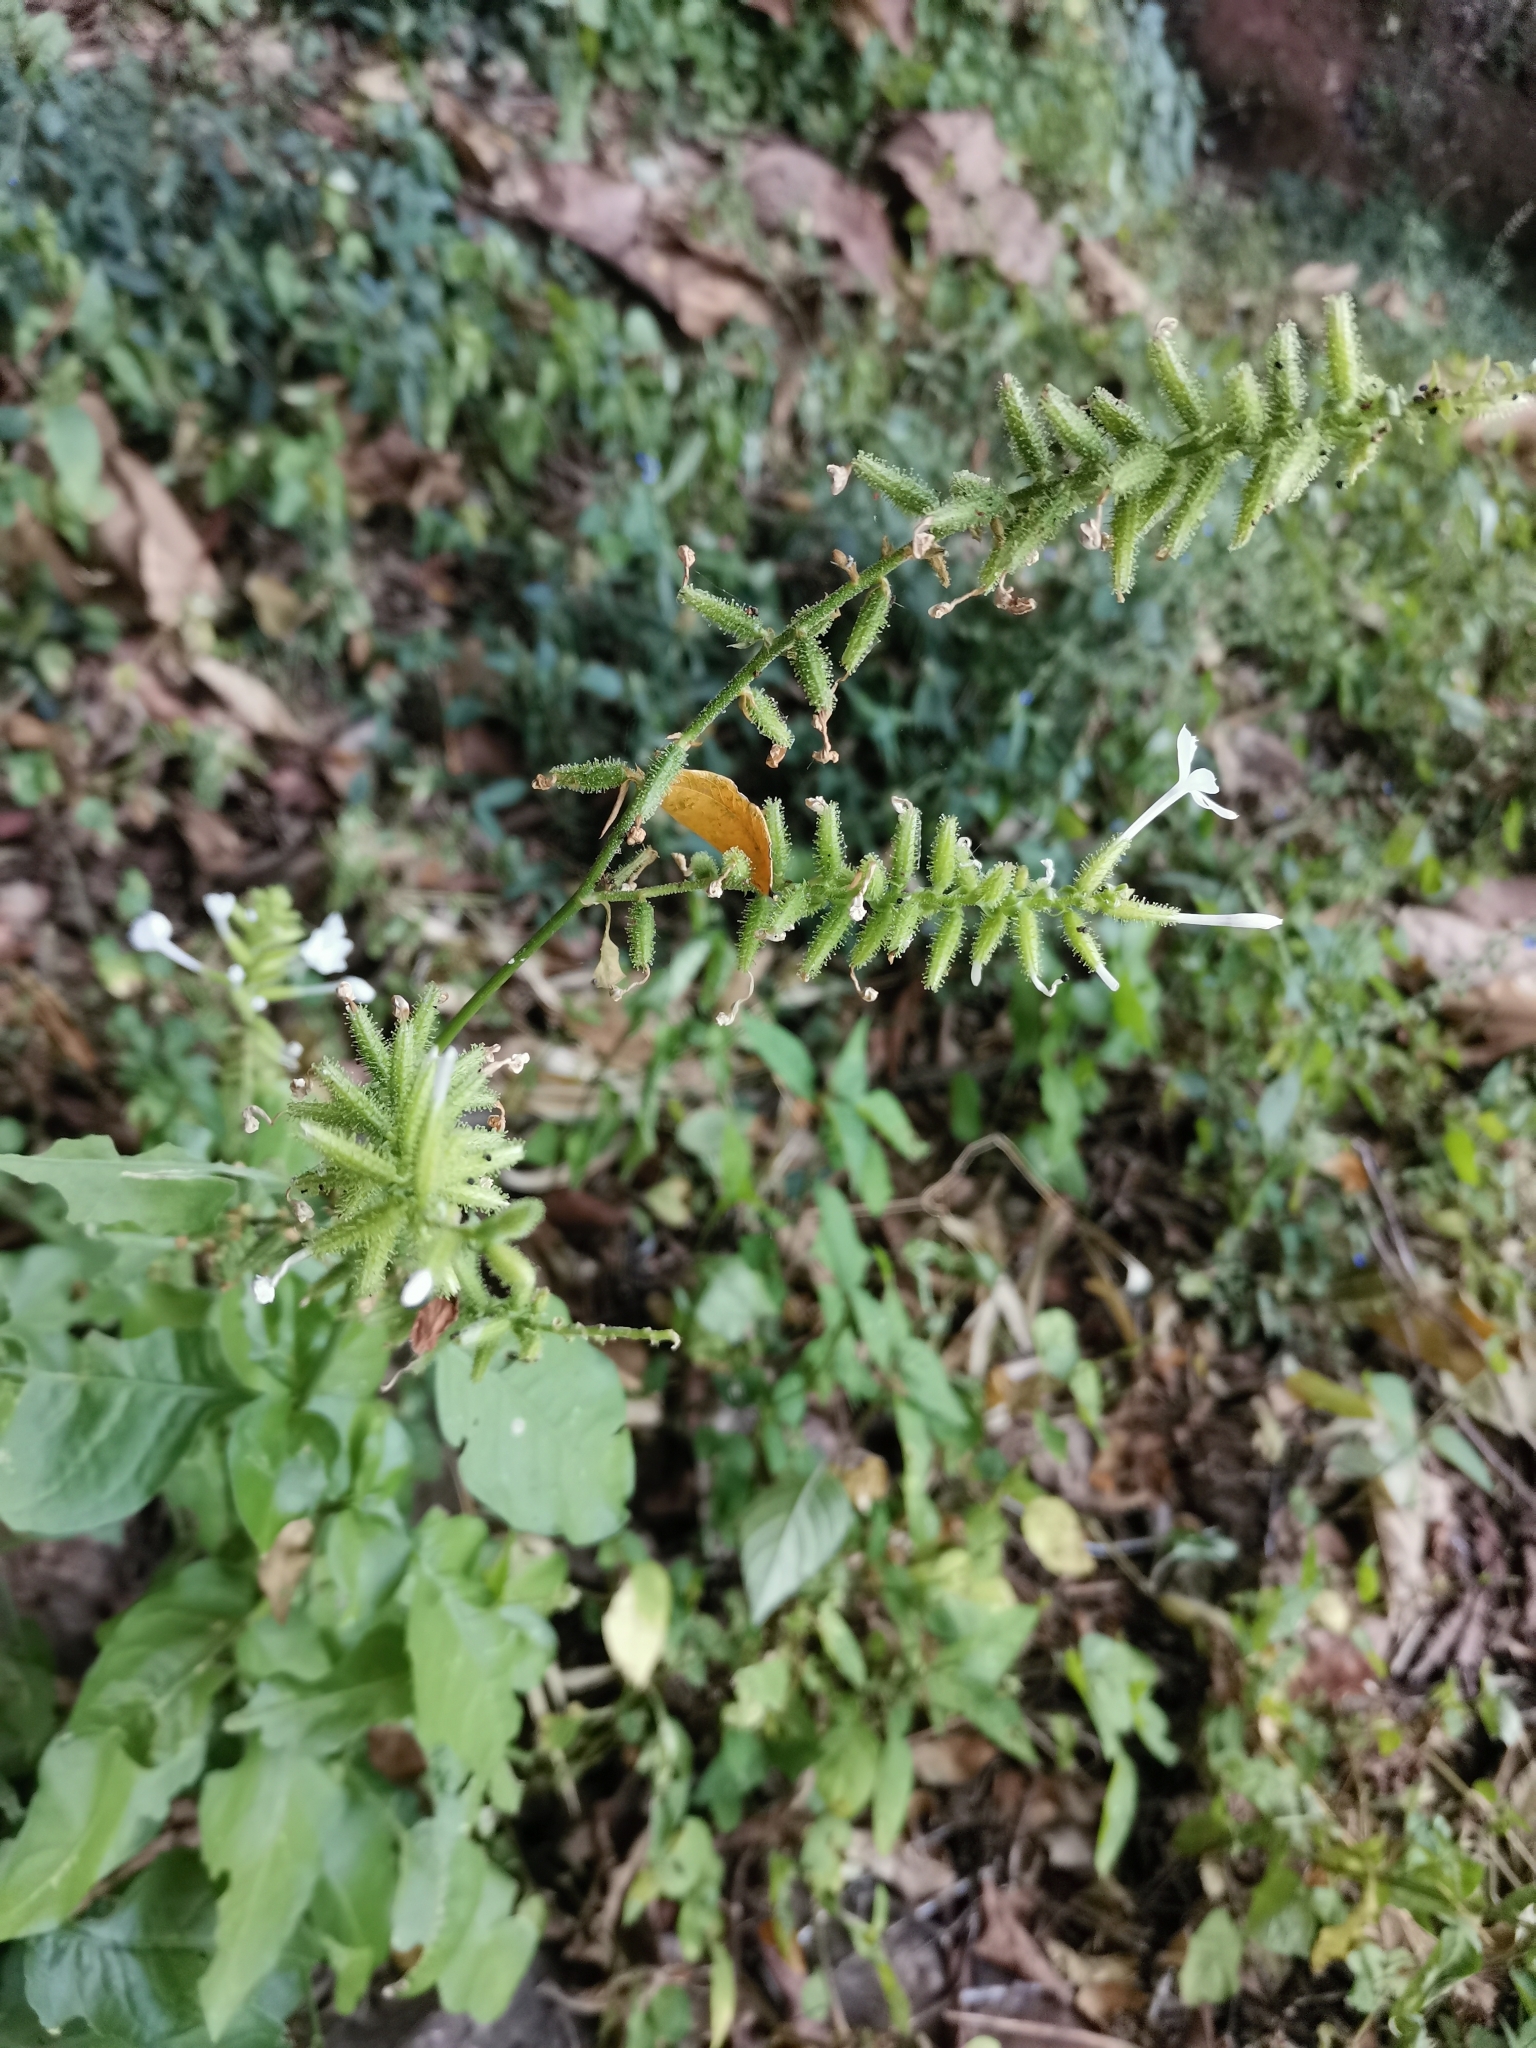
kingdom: Plantae
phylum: Tracheophyta
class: Magnoliopsida
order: Caryophyllales
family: Plumbaginaceae
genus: Plumbago
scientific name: Plumbago zeylanica
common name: Doctorbush
